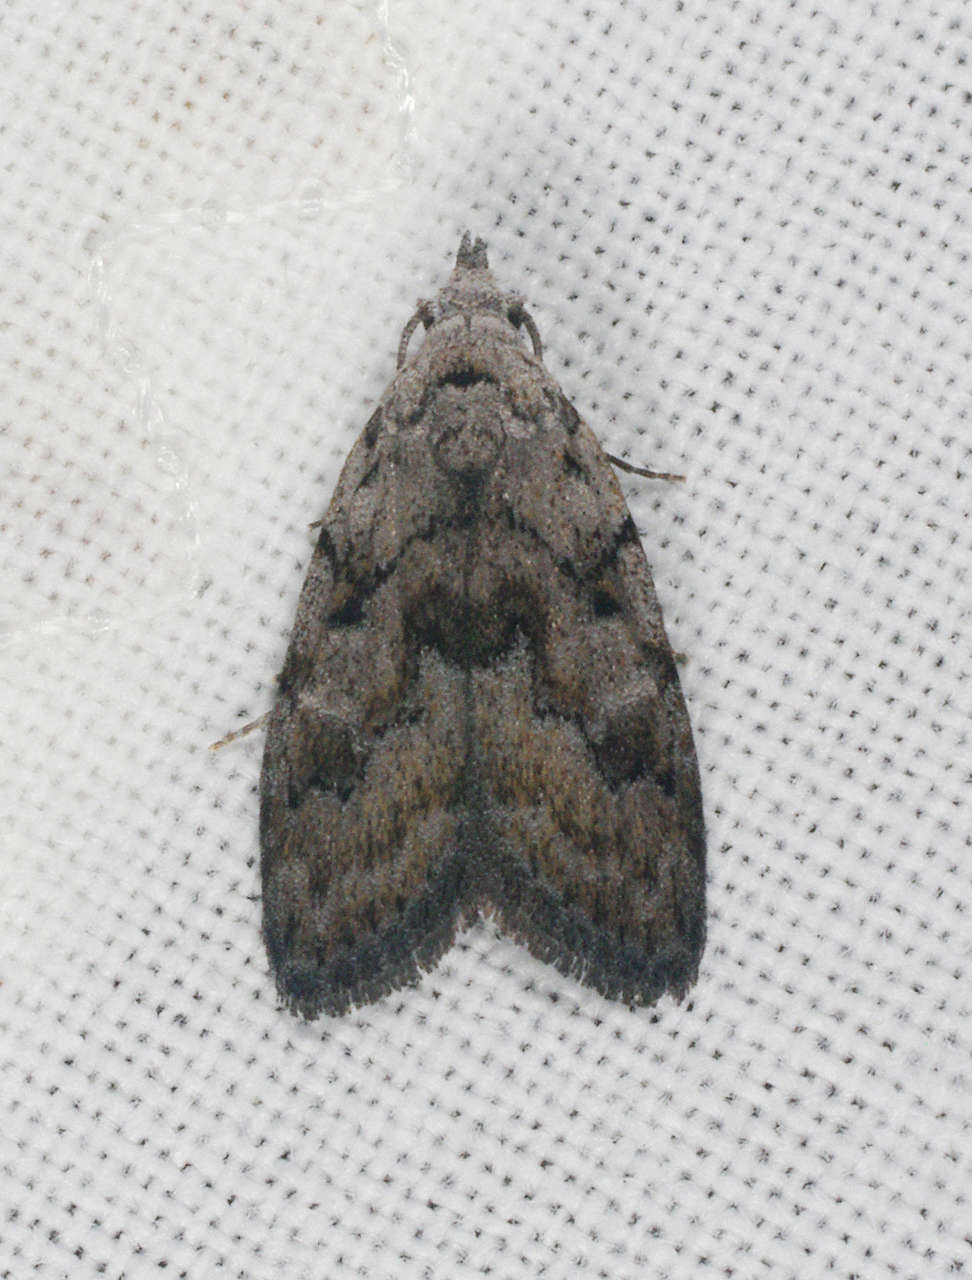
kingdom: Animalia
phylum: Arthropoda
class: Insecta
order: Lepidoptera
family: Nolidae
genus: Nola
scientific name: Nola cycota
